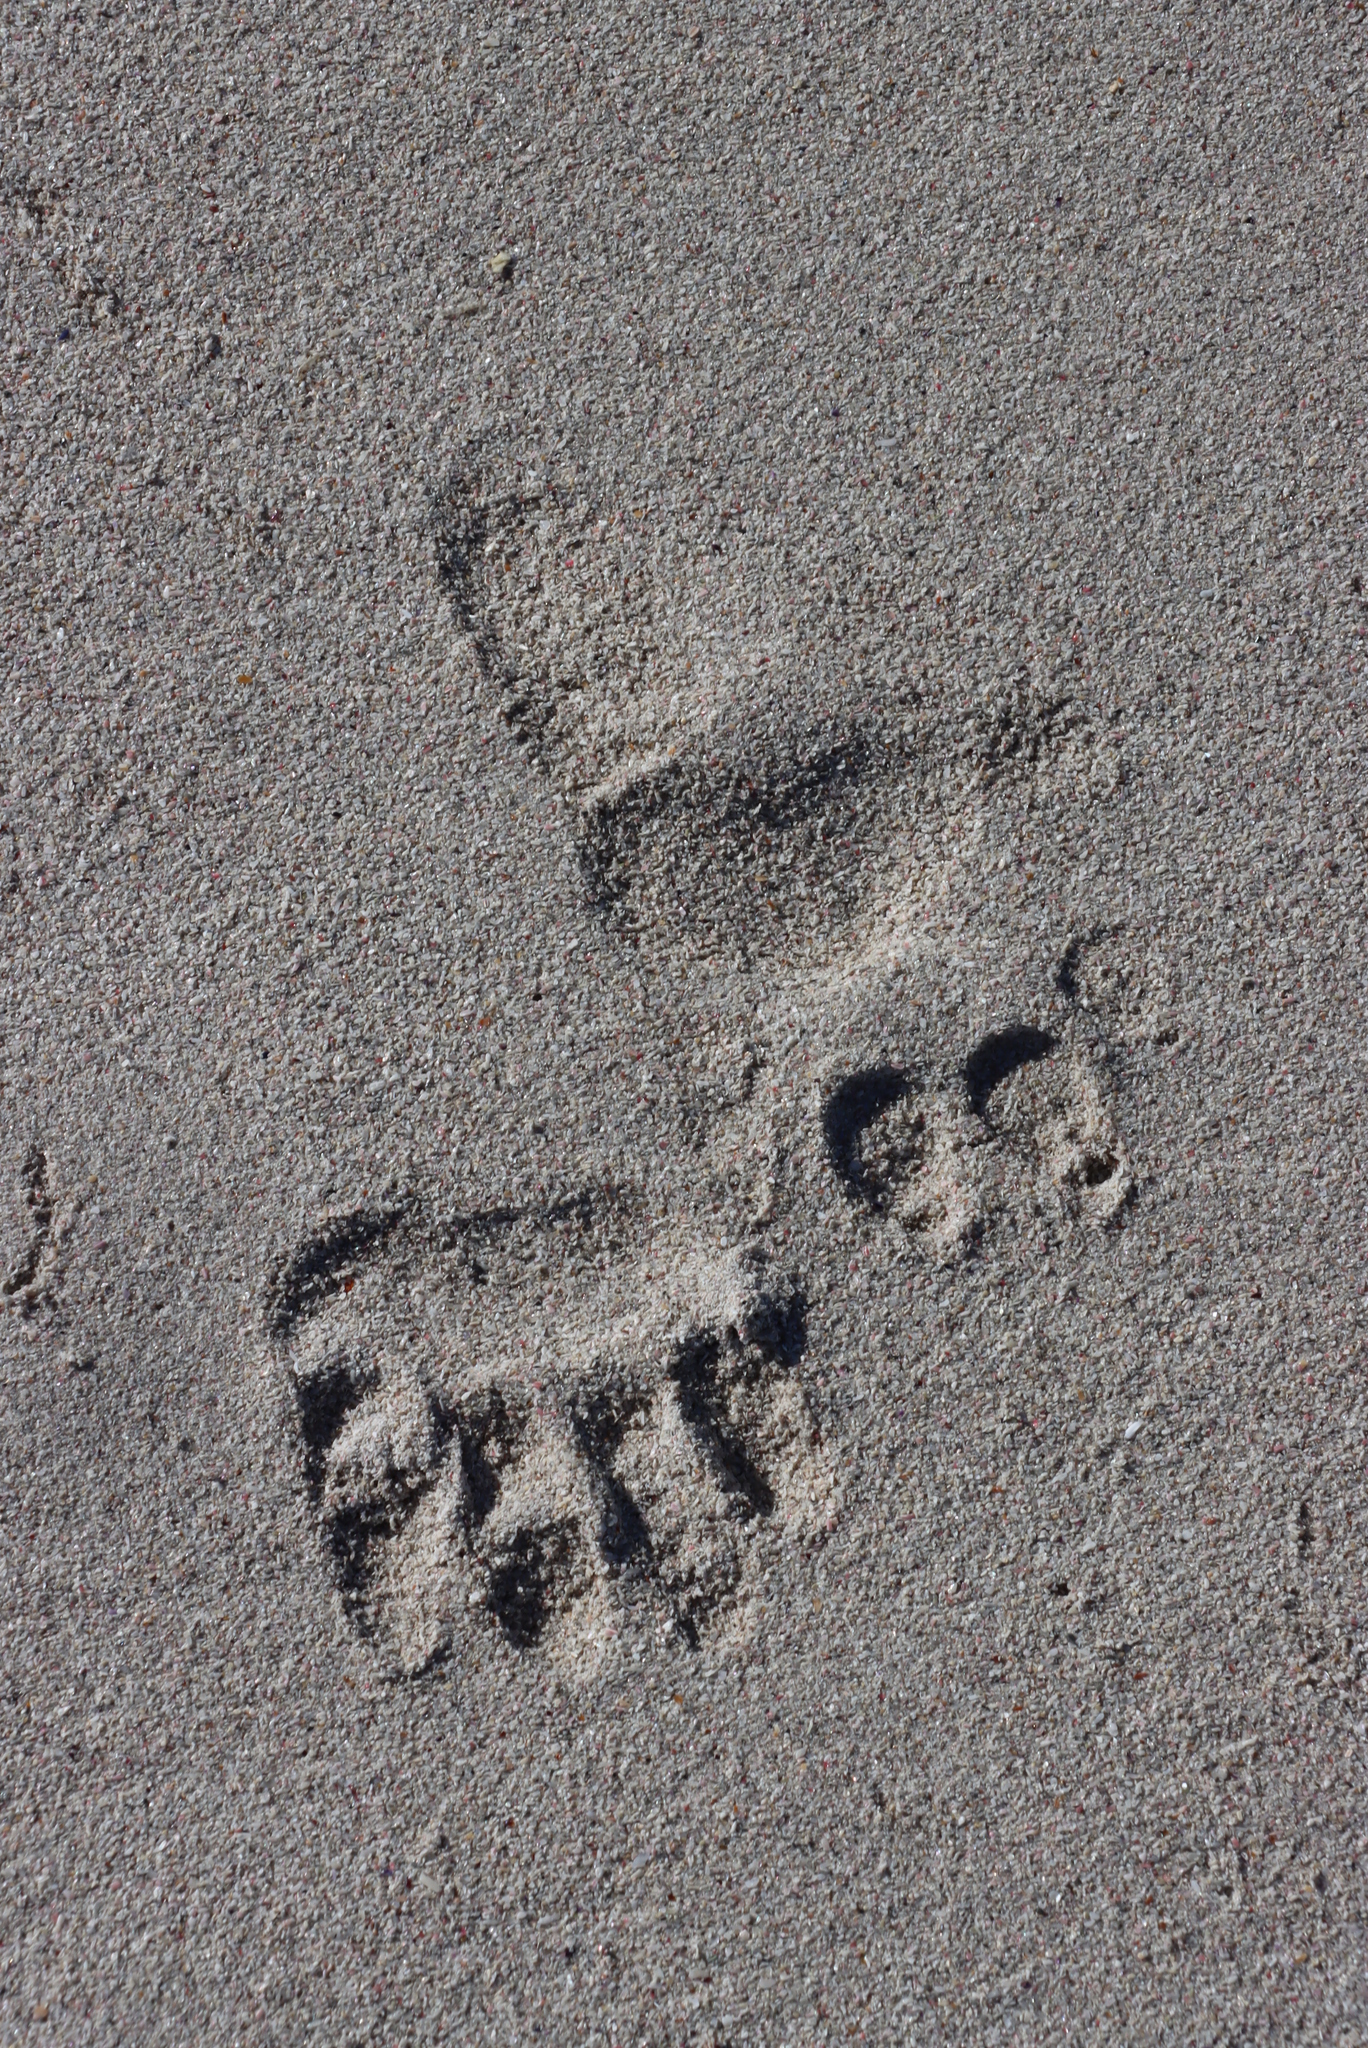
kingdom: Animalia
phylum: Chordata
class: Mammalia
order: Primates
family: Cercopithecidae
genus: Papio
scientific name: Papio ursinus
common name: Chacma baboon
